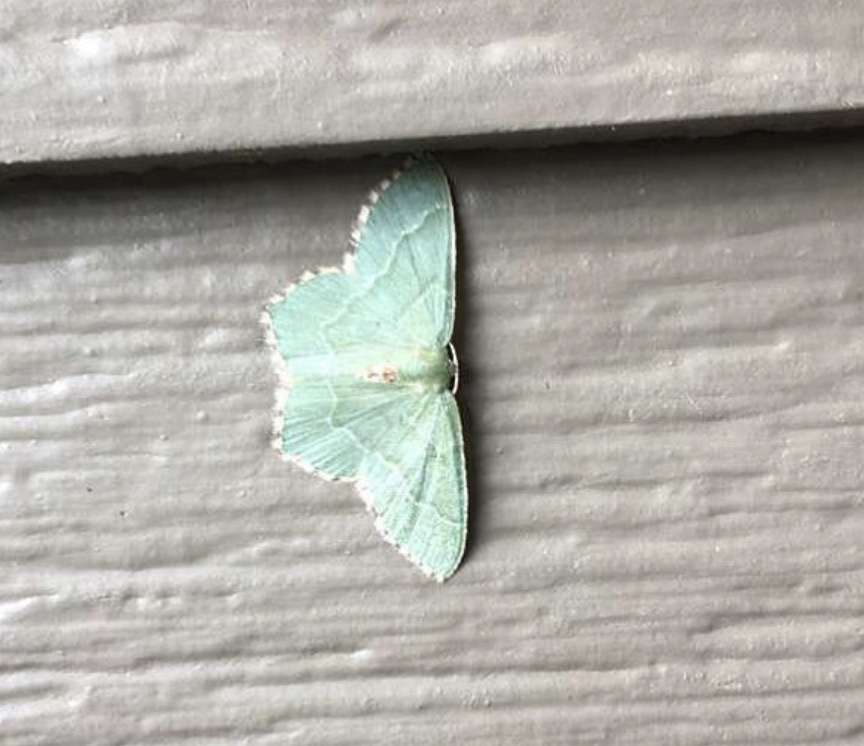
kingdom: Animalia
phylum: Arthropoda
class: Insecta
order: Lepidoptera
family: Geometridae
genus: Hemithea
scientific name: Hemithea aestivaria
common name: Common emerald
